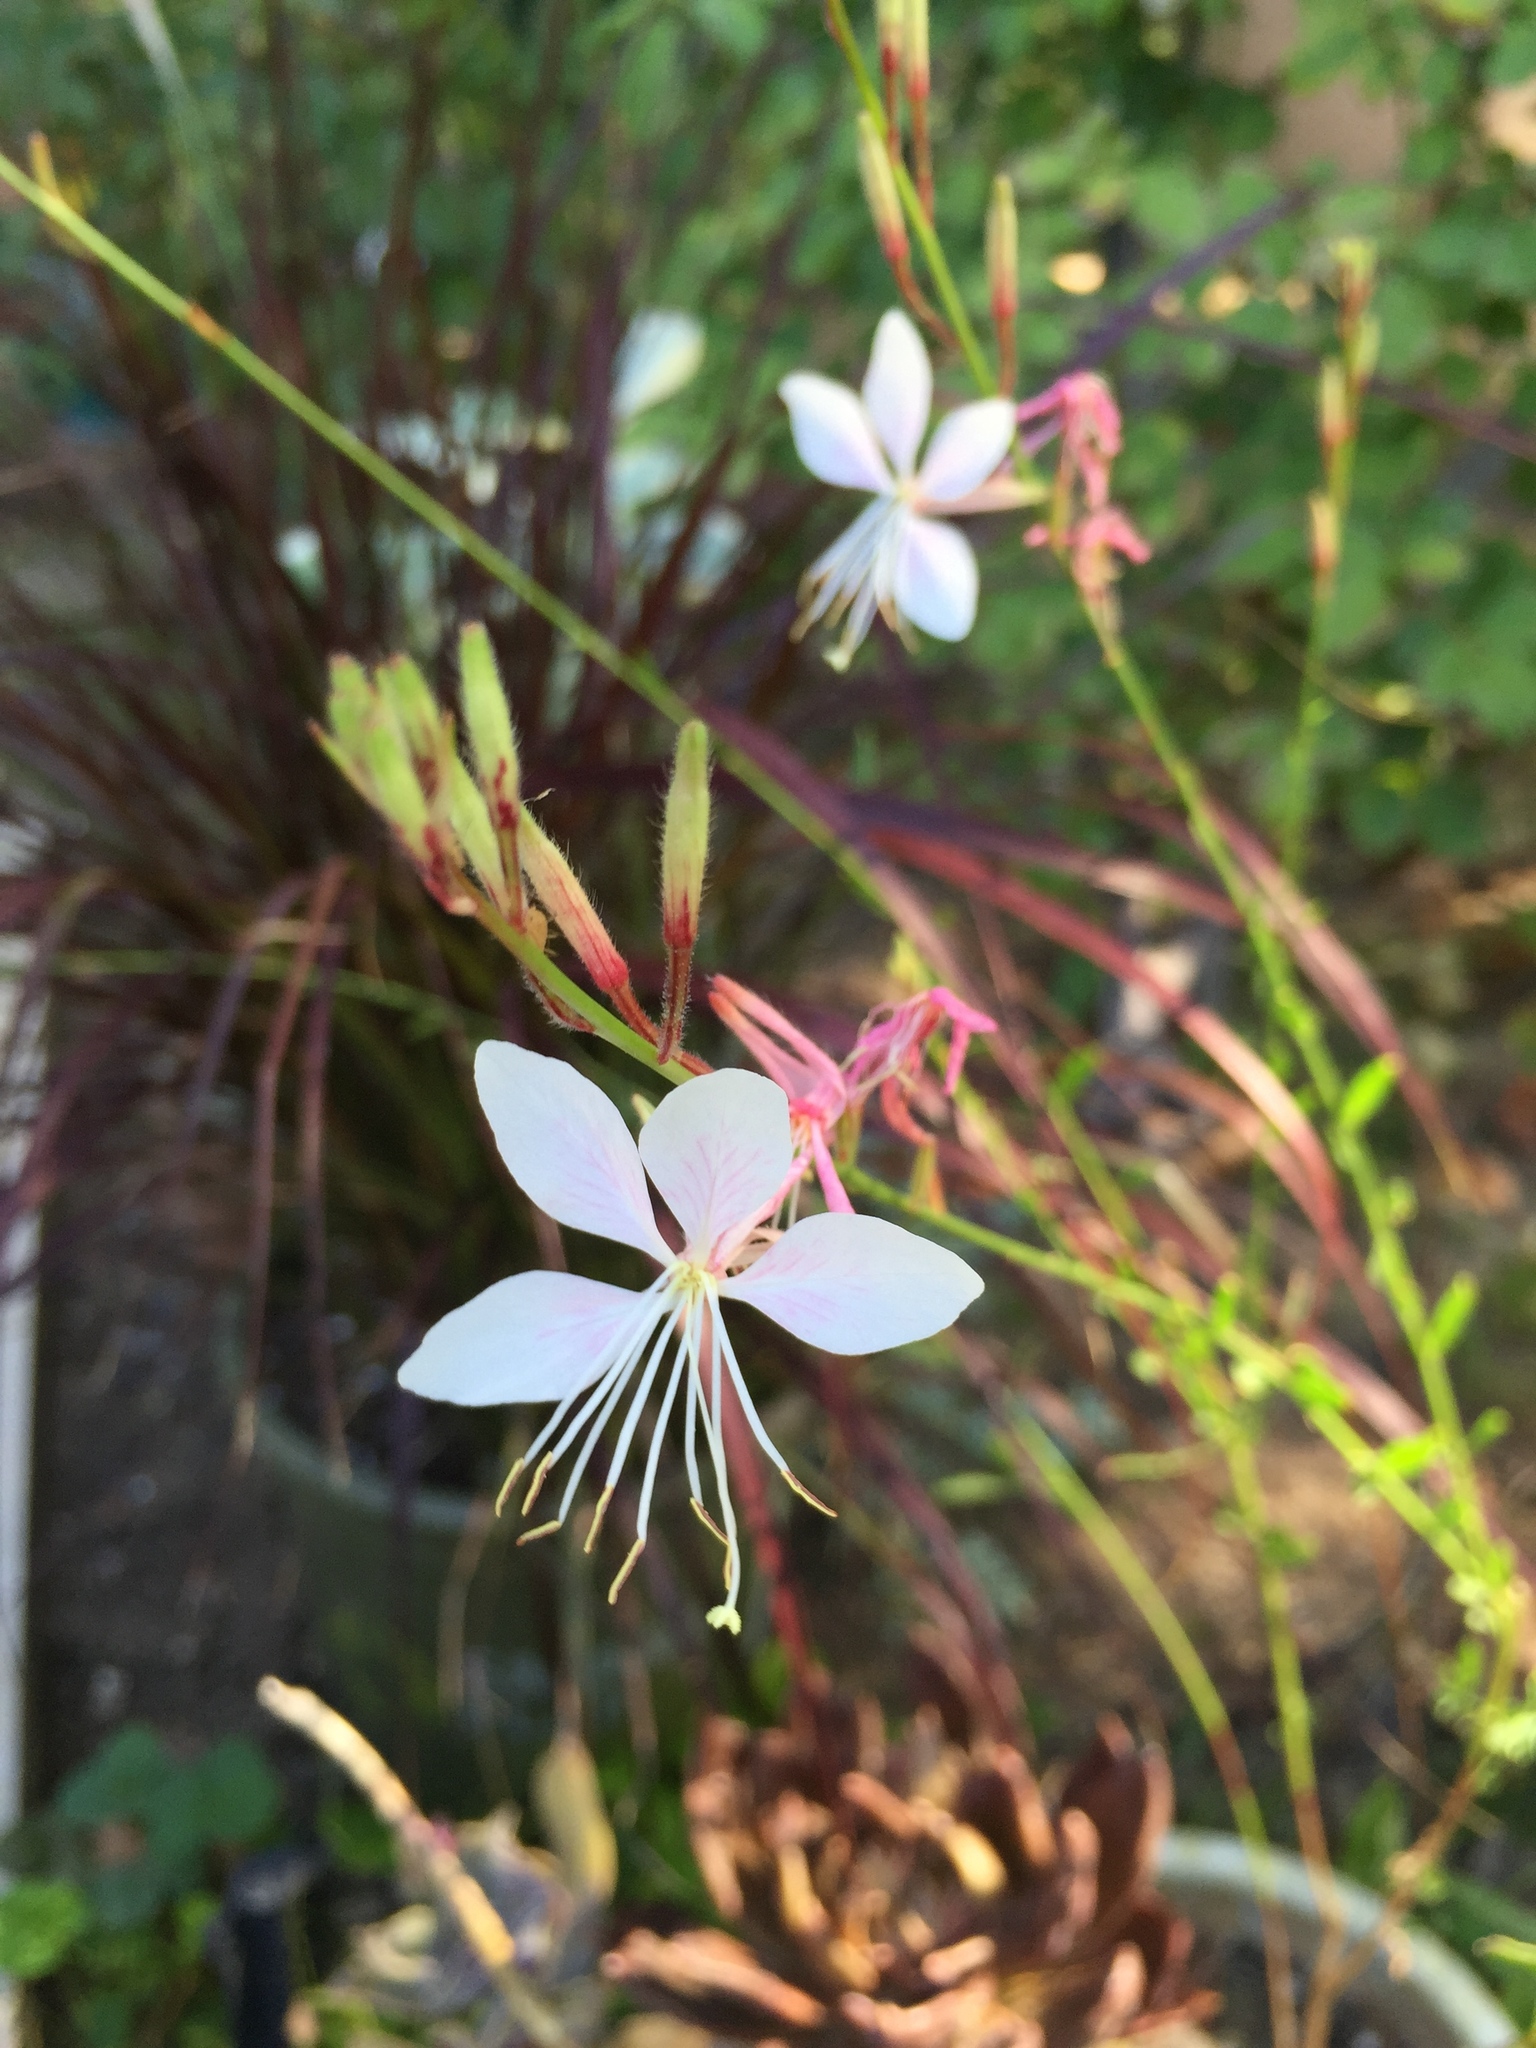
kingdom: Plantae
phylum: Tracheophyta
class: Magnoliopsida
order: Myrtales
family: Onagraceae
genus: Oenothera
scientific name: Oenothera lindheimeri
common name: Lindheimer's beeblossom
